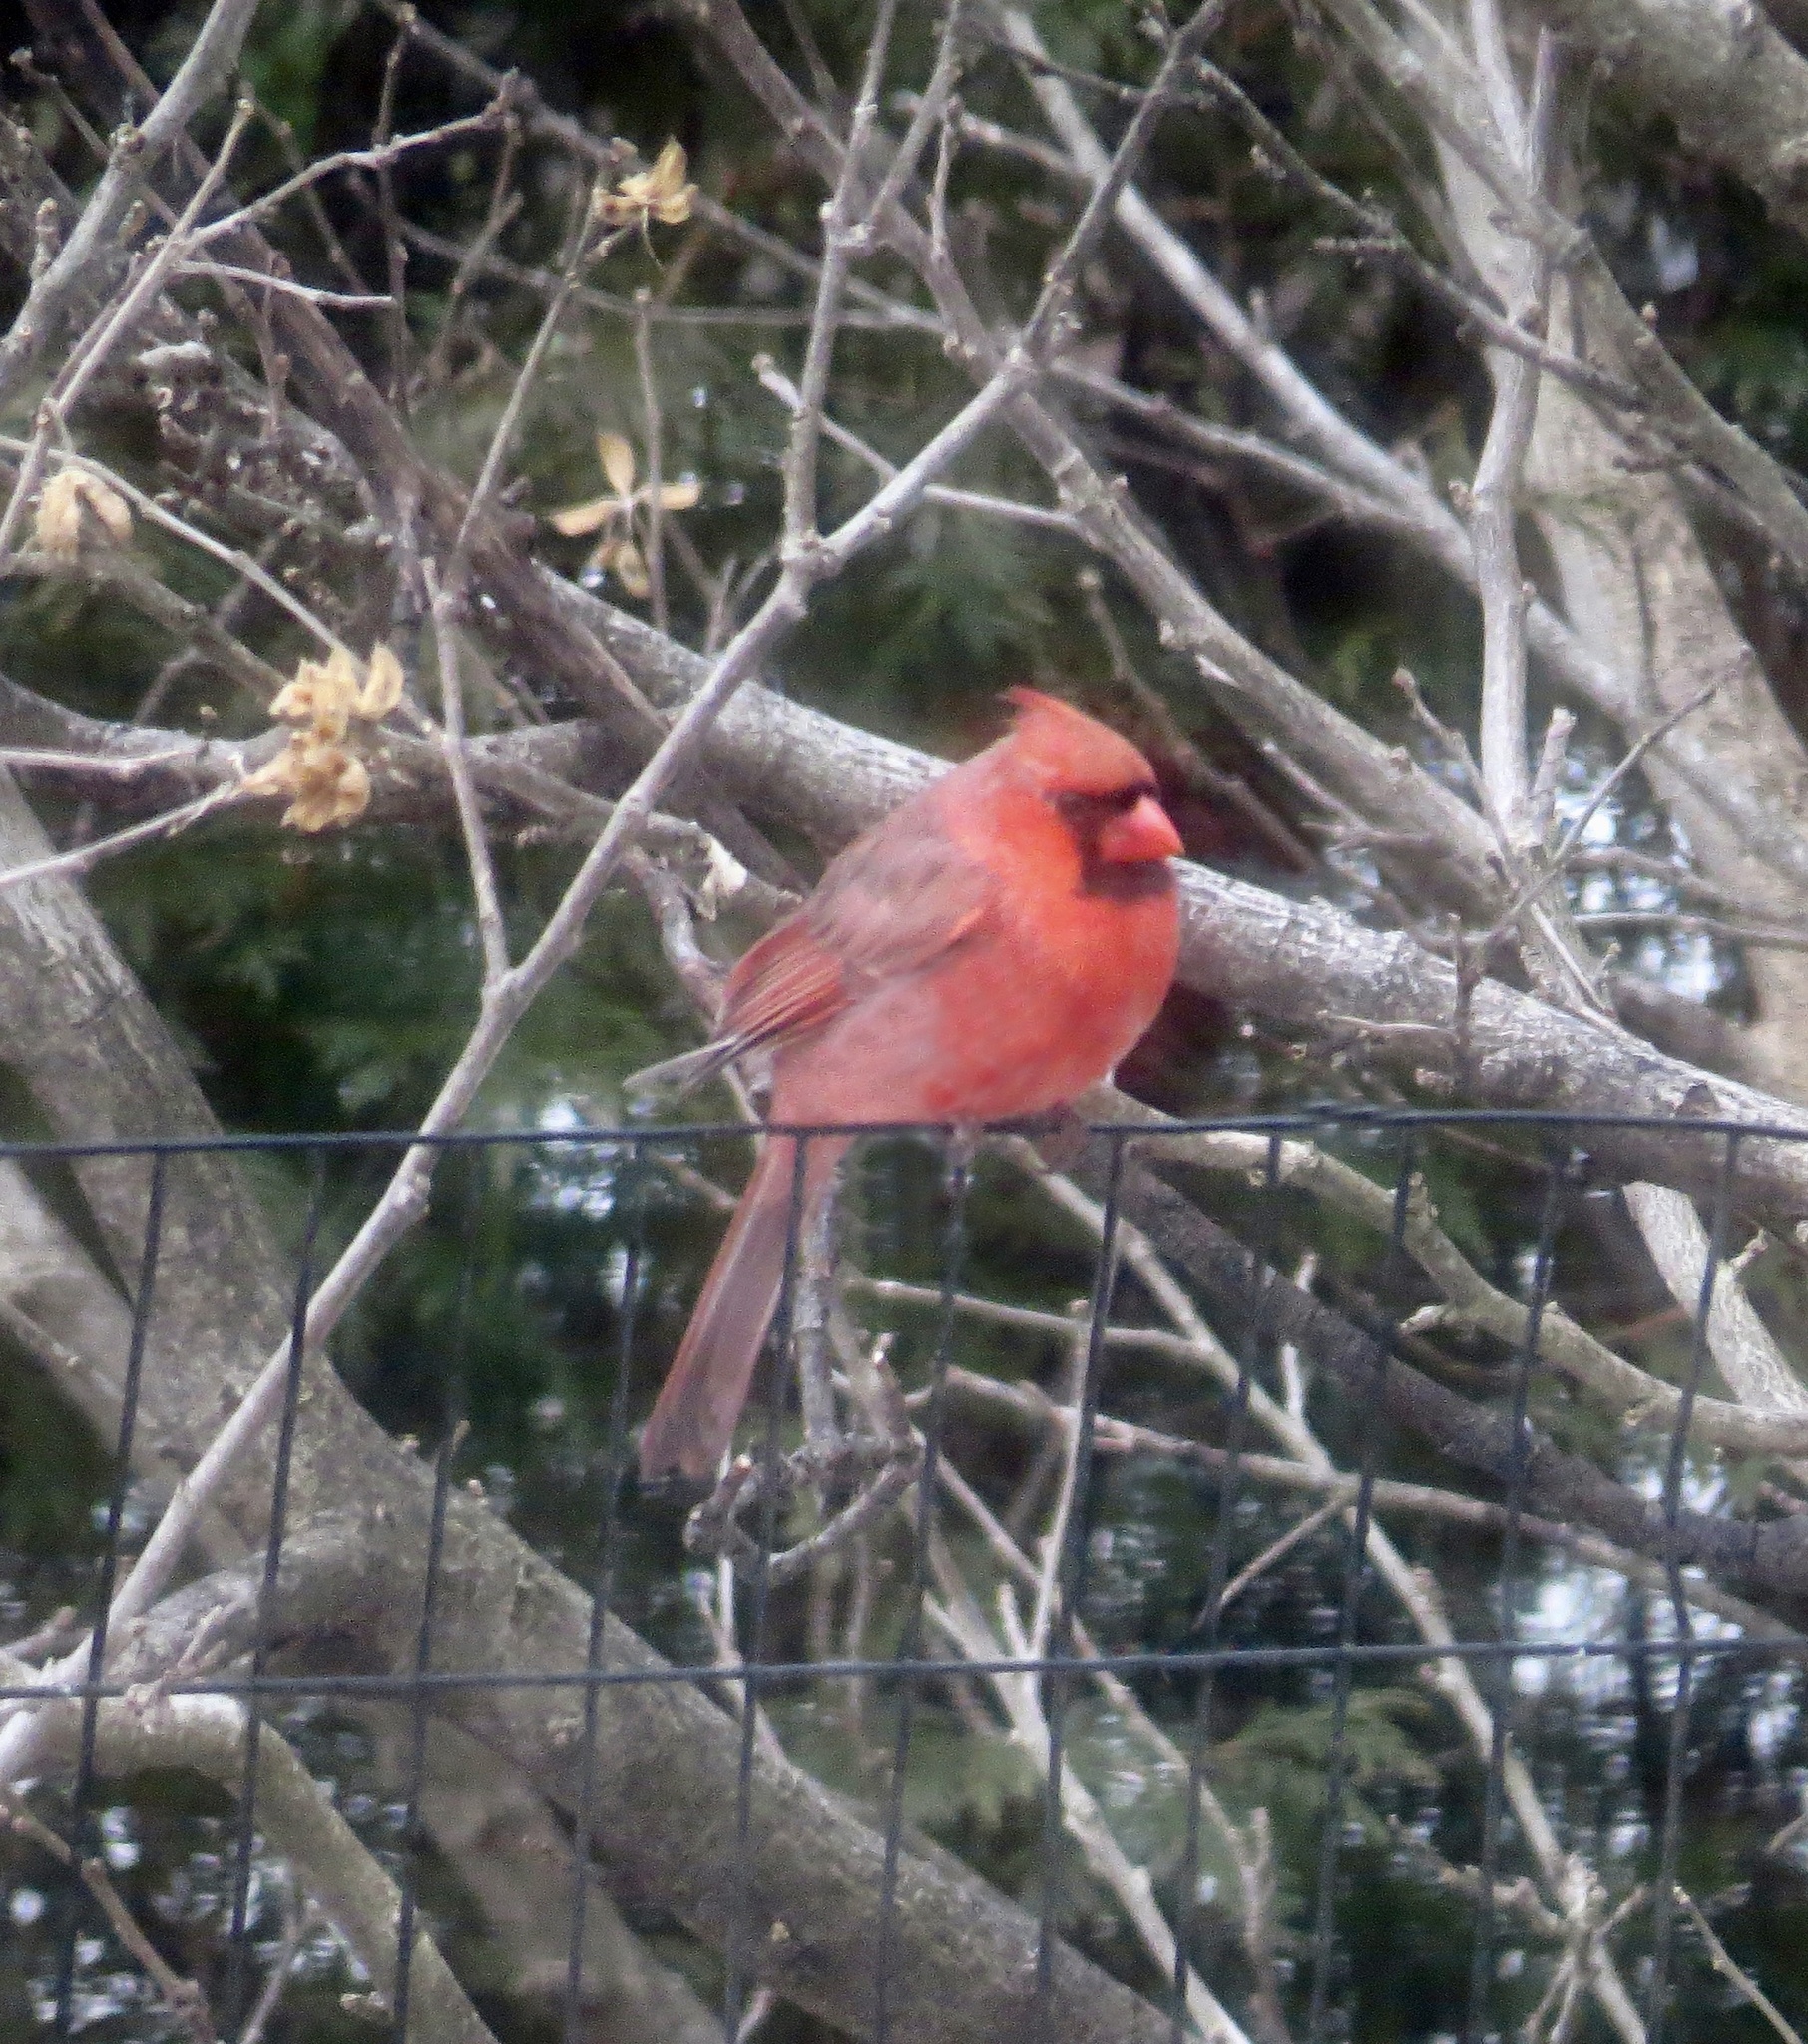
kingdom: Animalia
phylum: Chordata
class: Aves
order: Passeriformes
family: Cardinalidae
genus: Cardinalis
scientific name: Cardinalis cardinalis
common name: Northern cardinal
